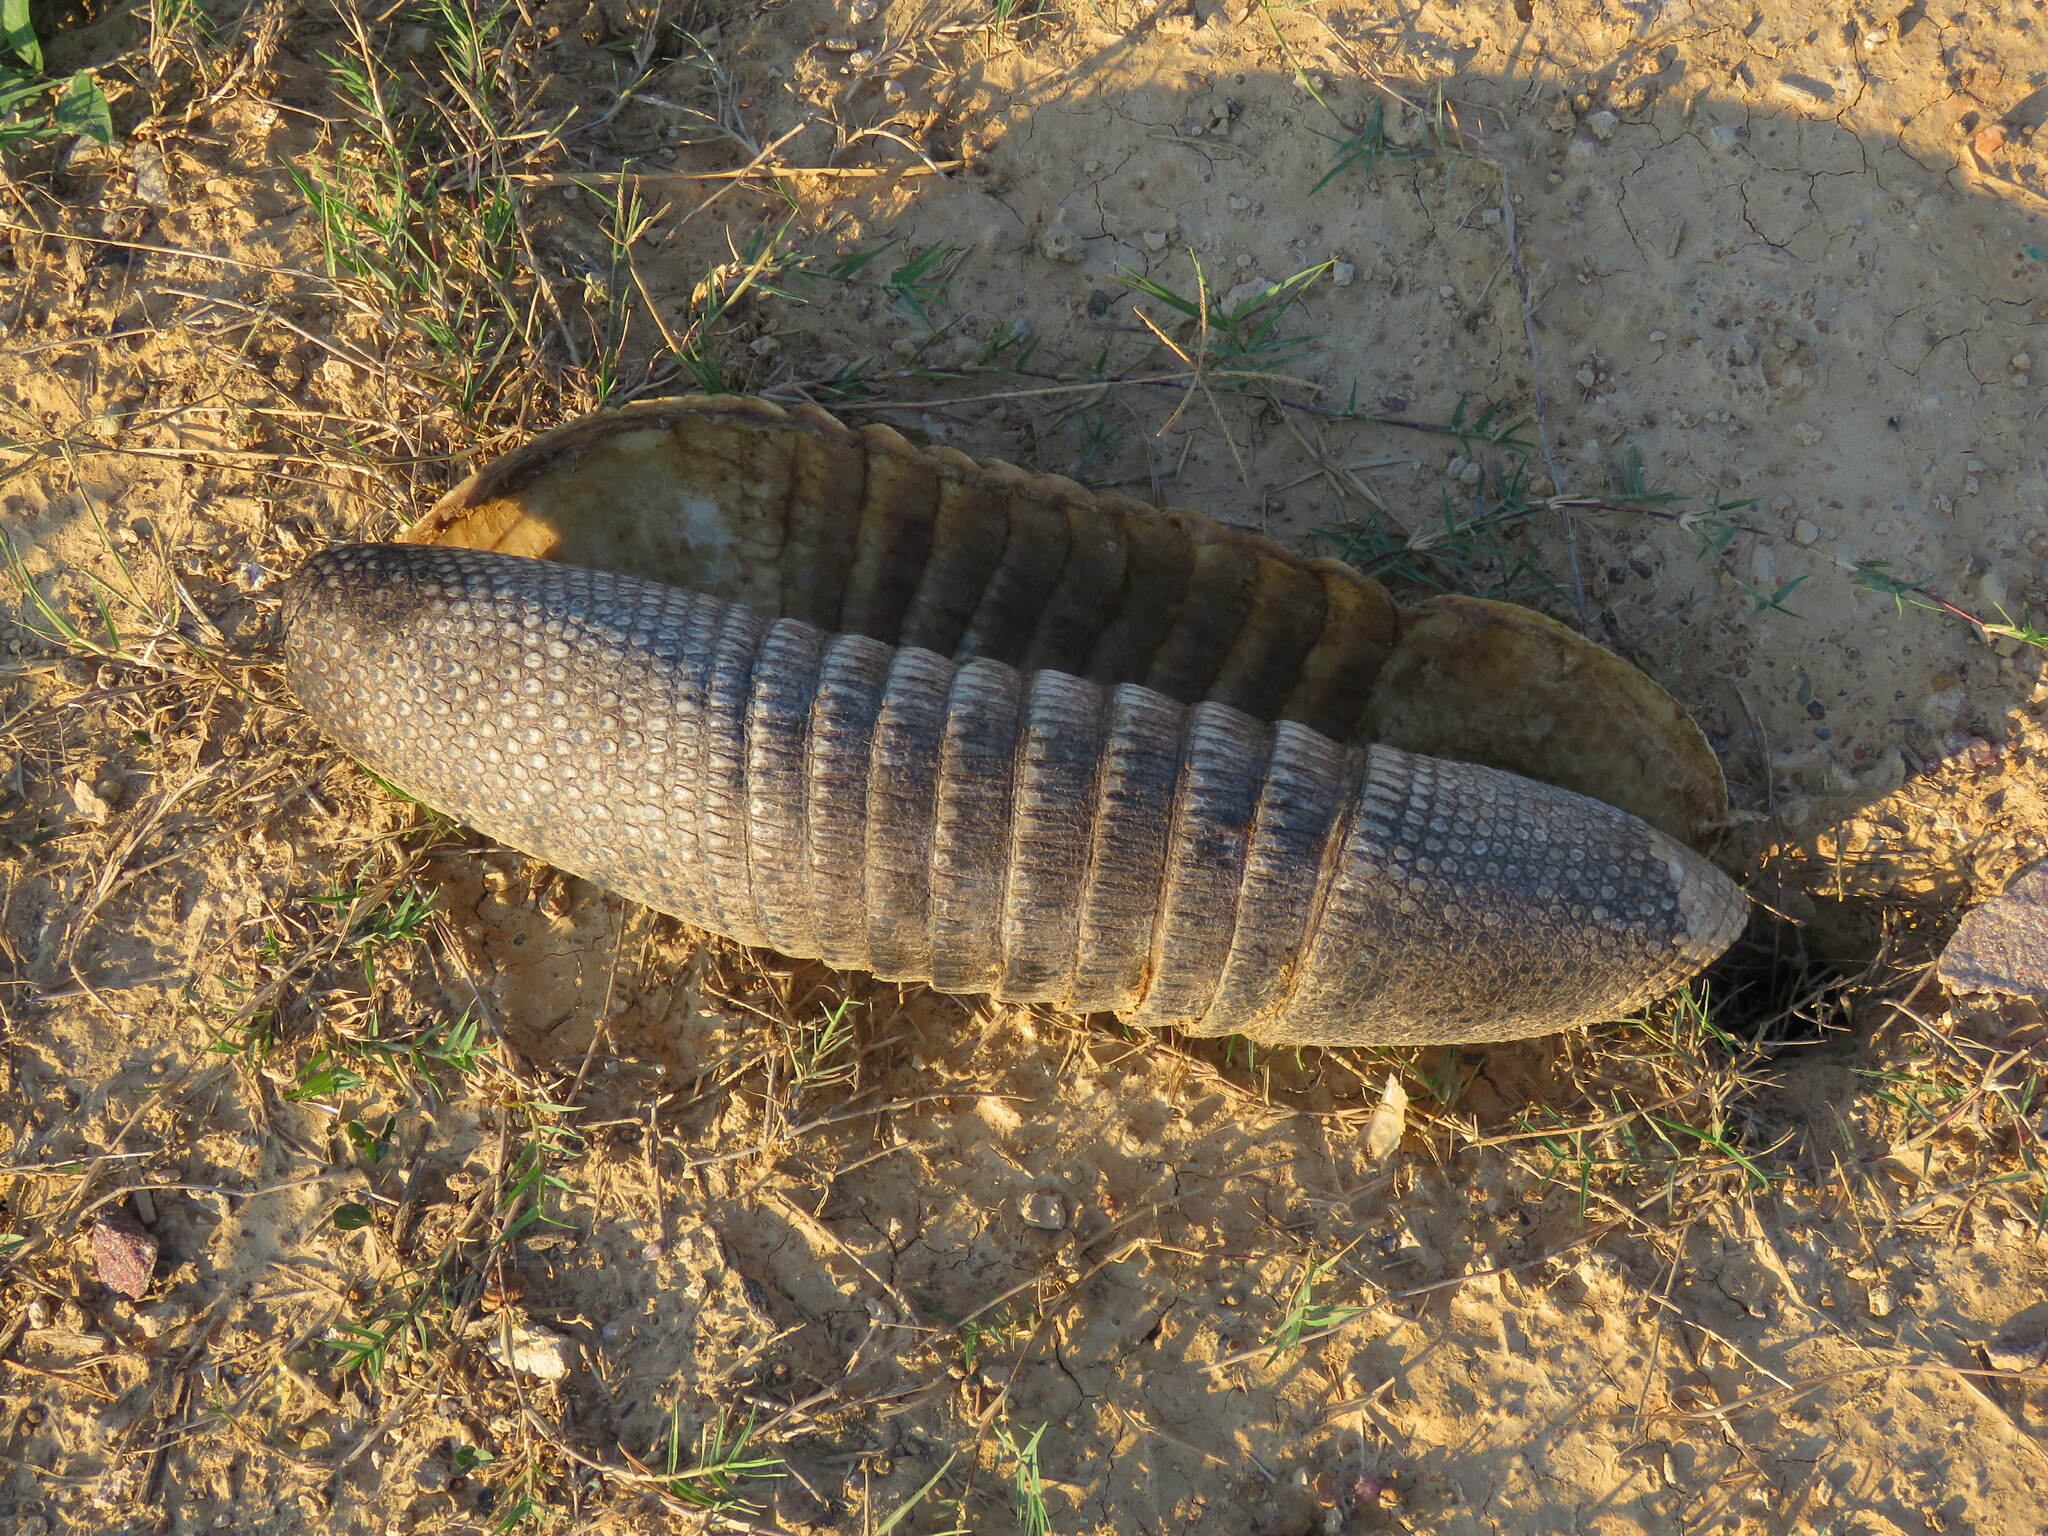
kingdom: Animalia
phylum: Chordata
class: Mammalia
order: Cingulata
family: Dasypodidae
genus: Dasypus
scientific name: Dasypus novemcinctus
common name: Nine-banded armadillo
